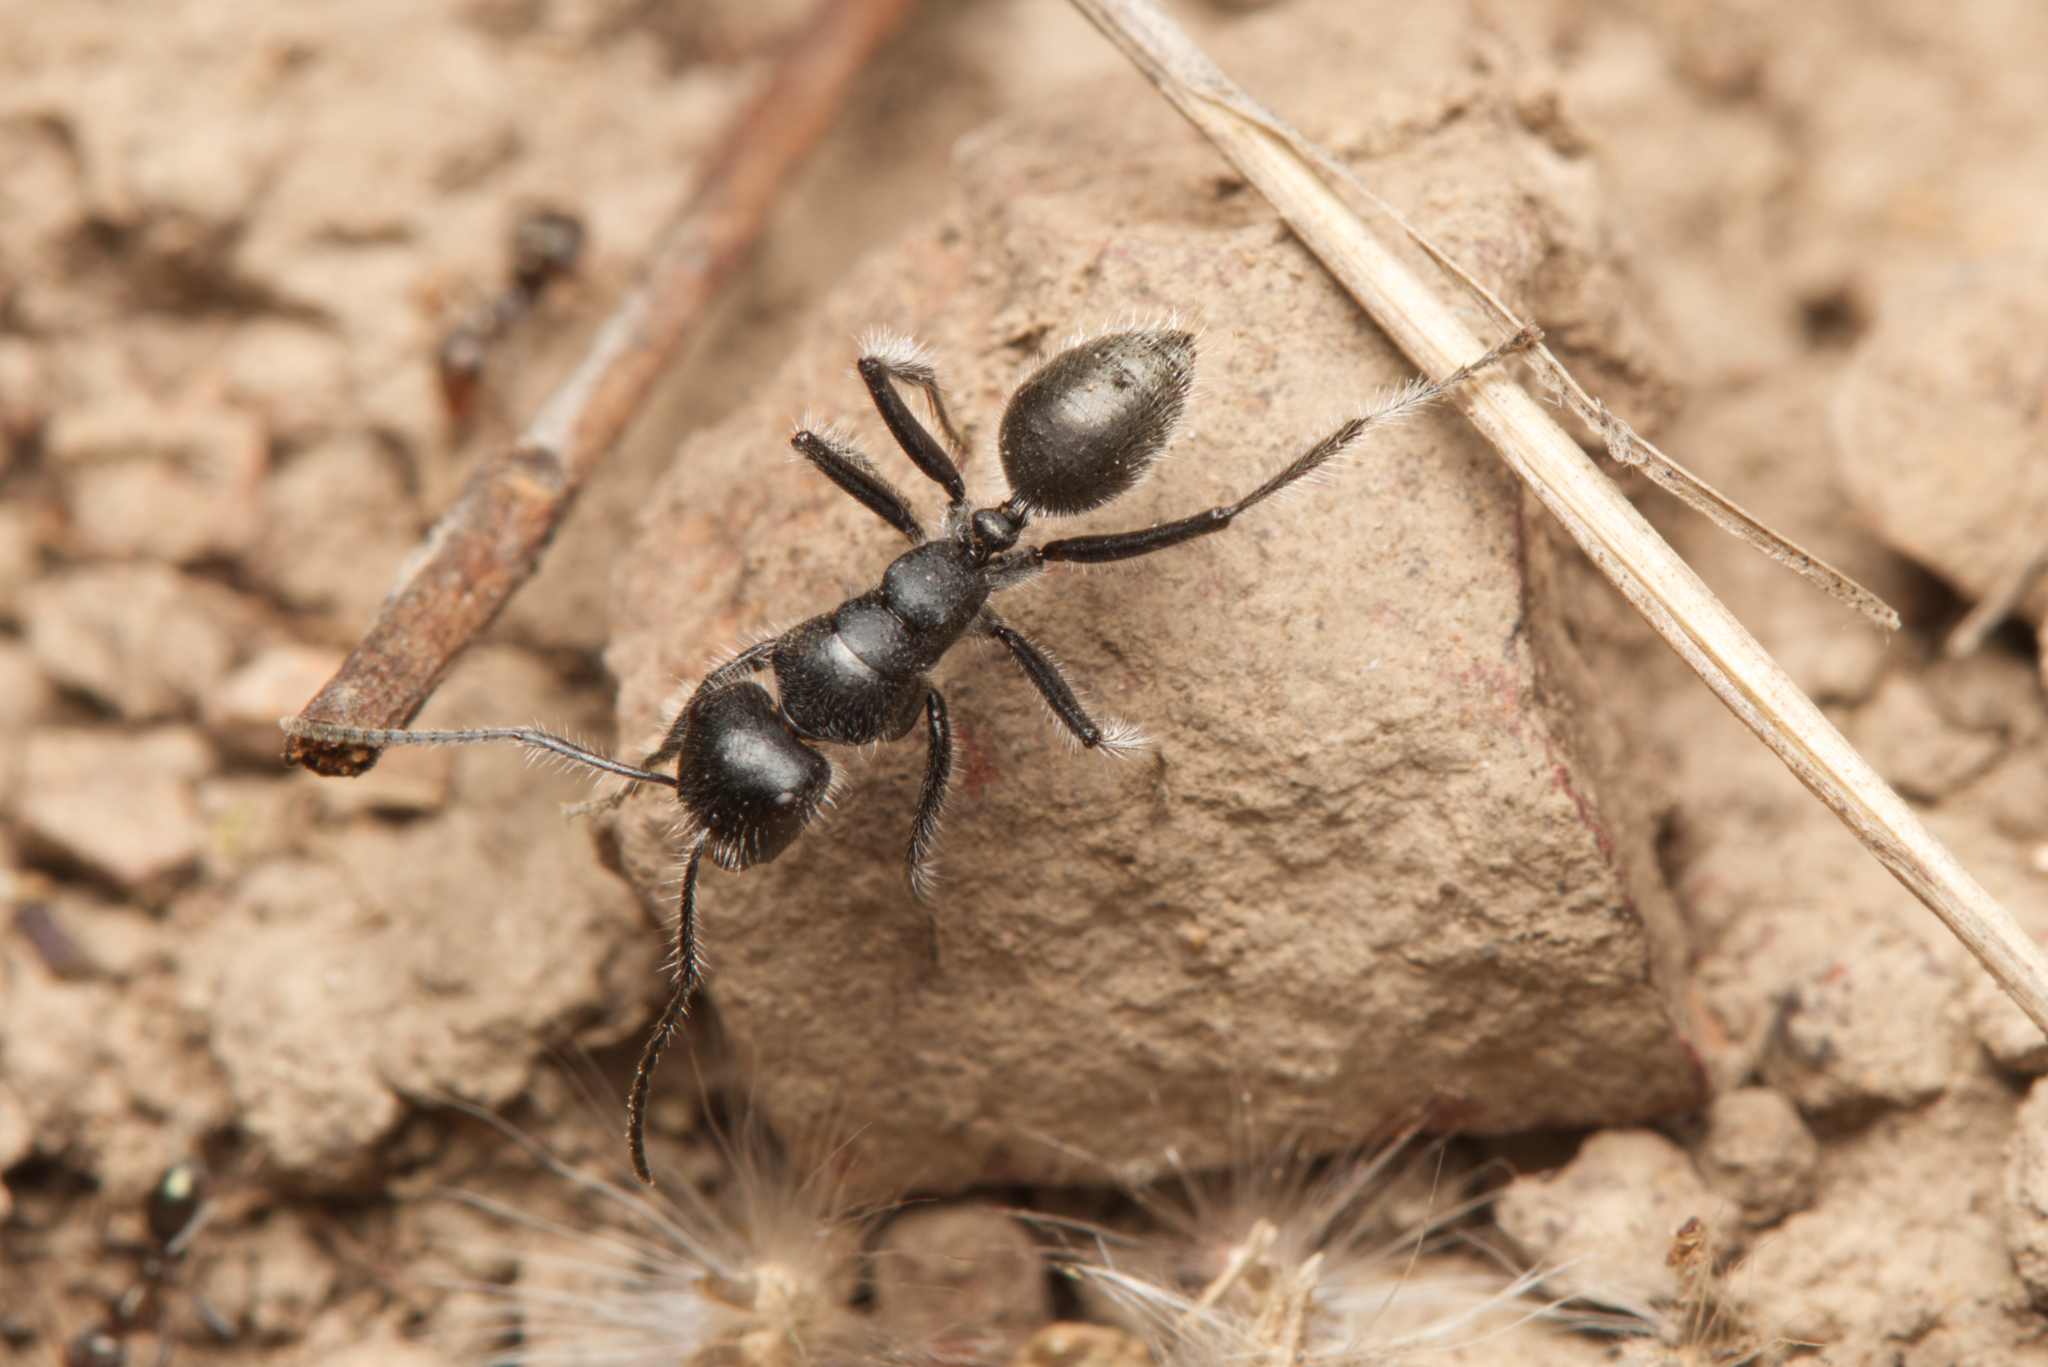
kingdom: Animalia
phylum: Arthropoda
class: Insecta
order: Hymenoptera
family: Formicidae
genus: Calomyrmex
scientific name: Calomyrmex albopilosus
